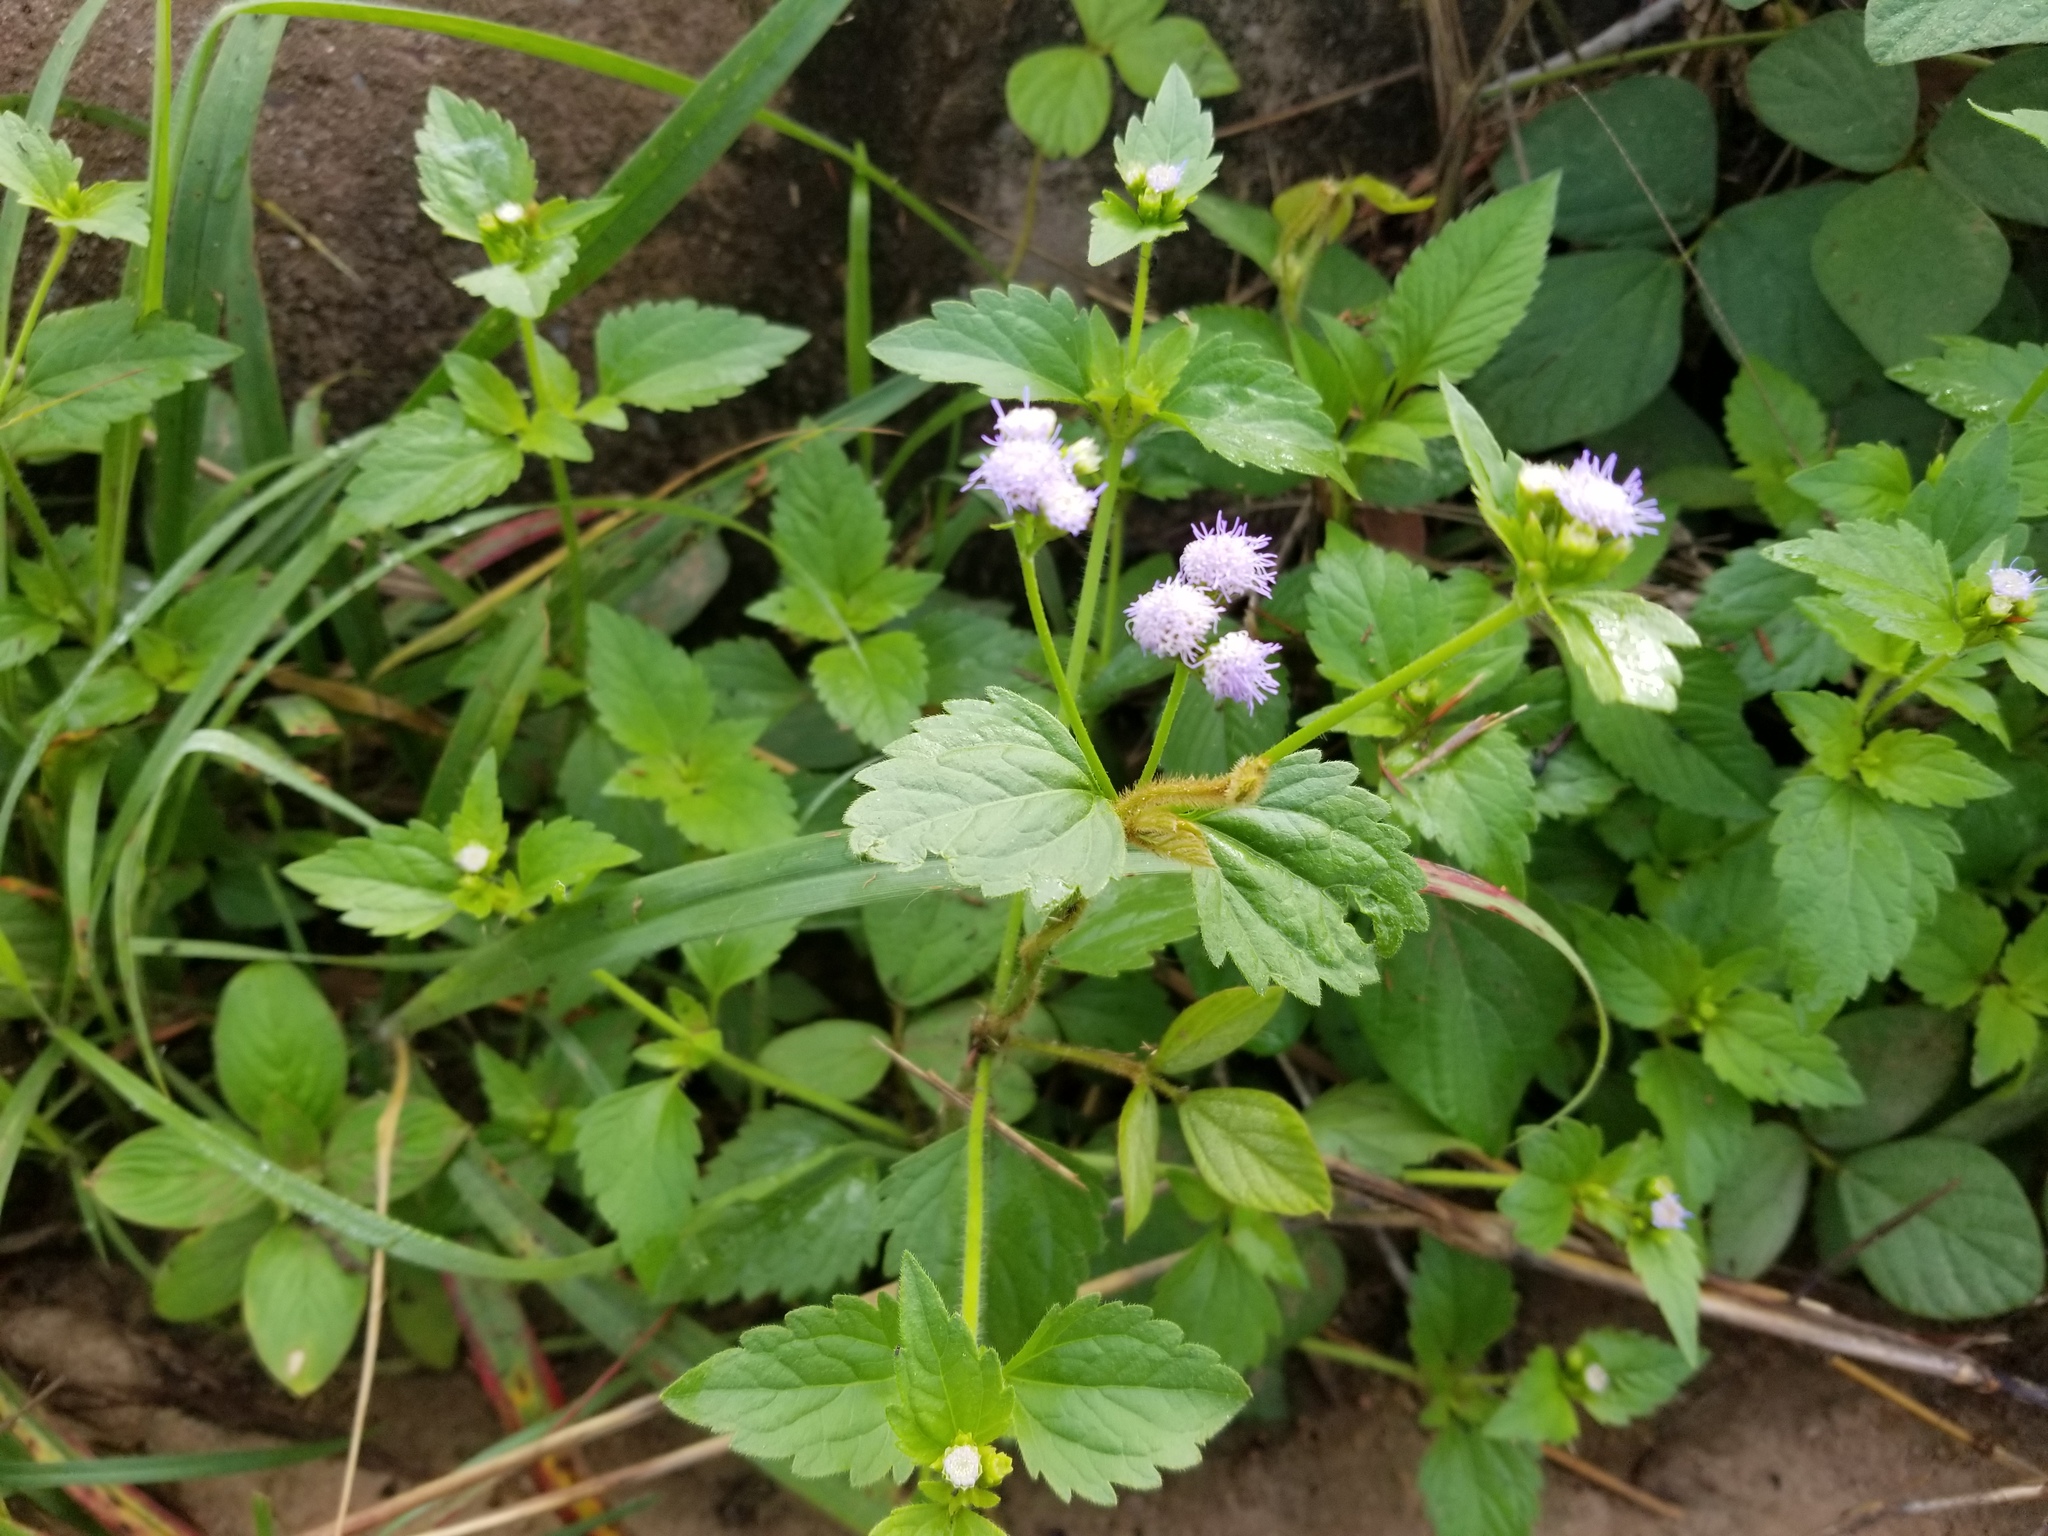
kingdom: Plantae
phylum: Tracheophyta
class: Magnoliopsida
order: Asterales
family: Asteraceae
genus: Praxelis
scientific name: Praxelis clematidea
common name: Praxelis
